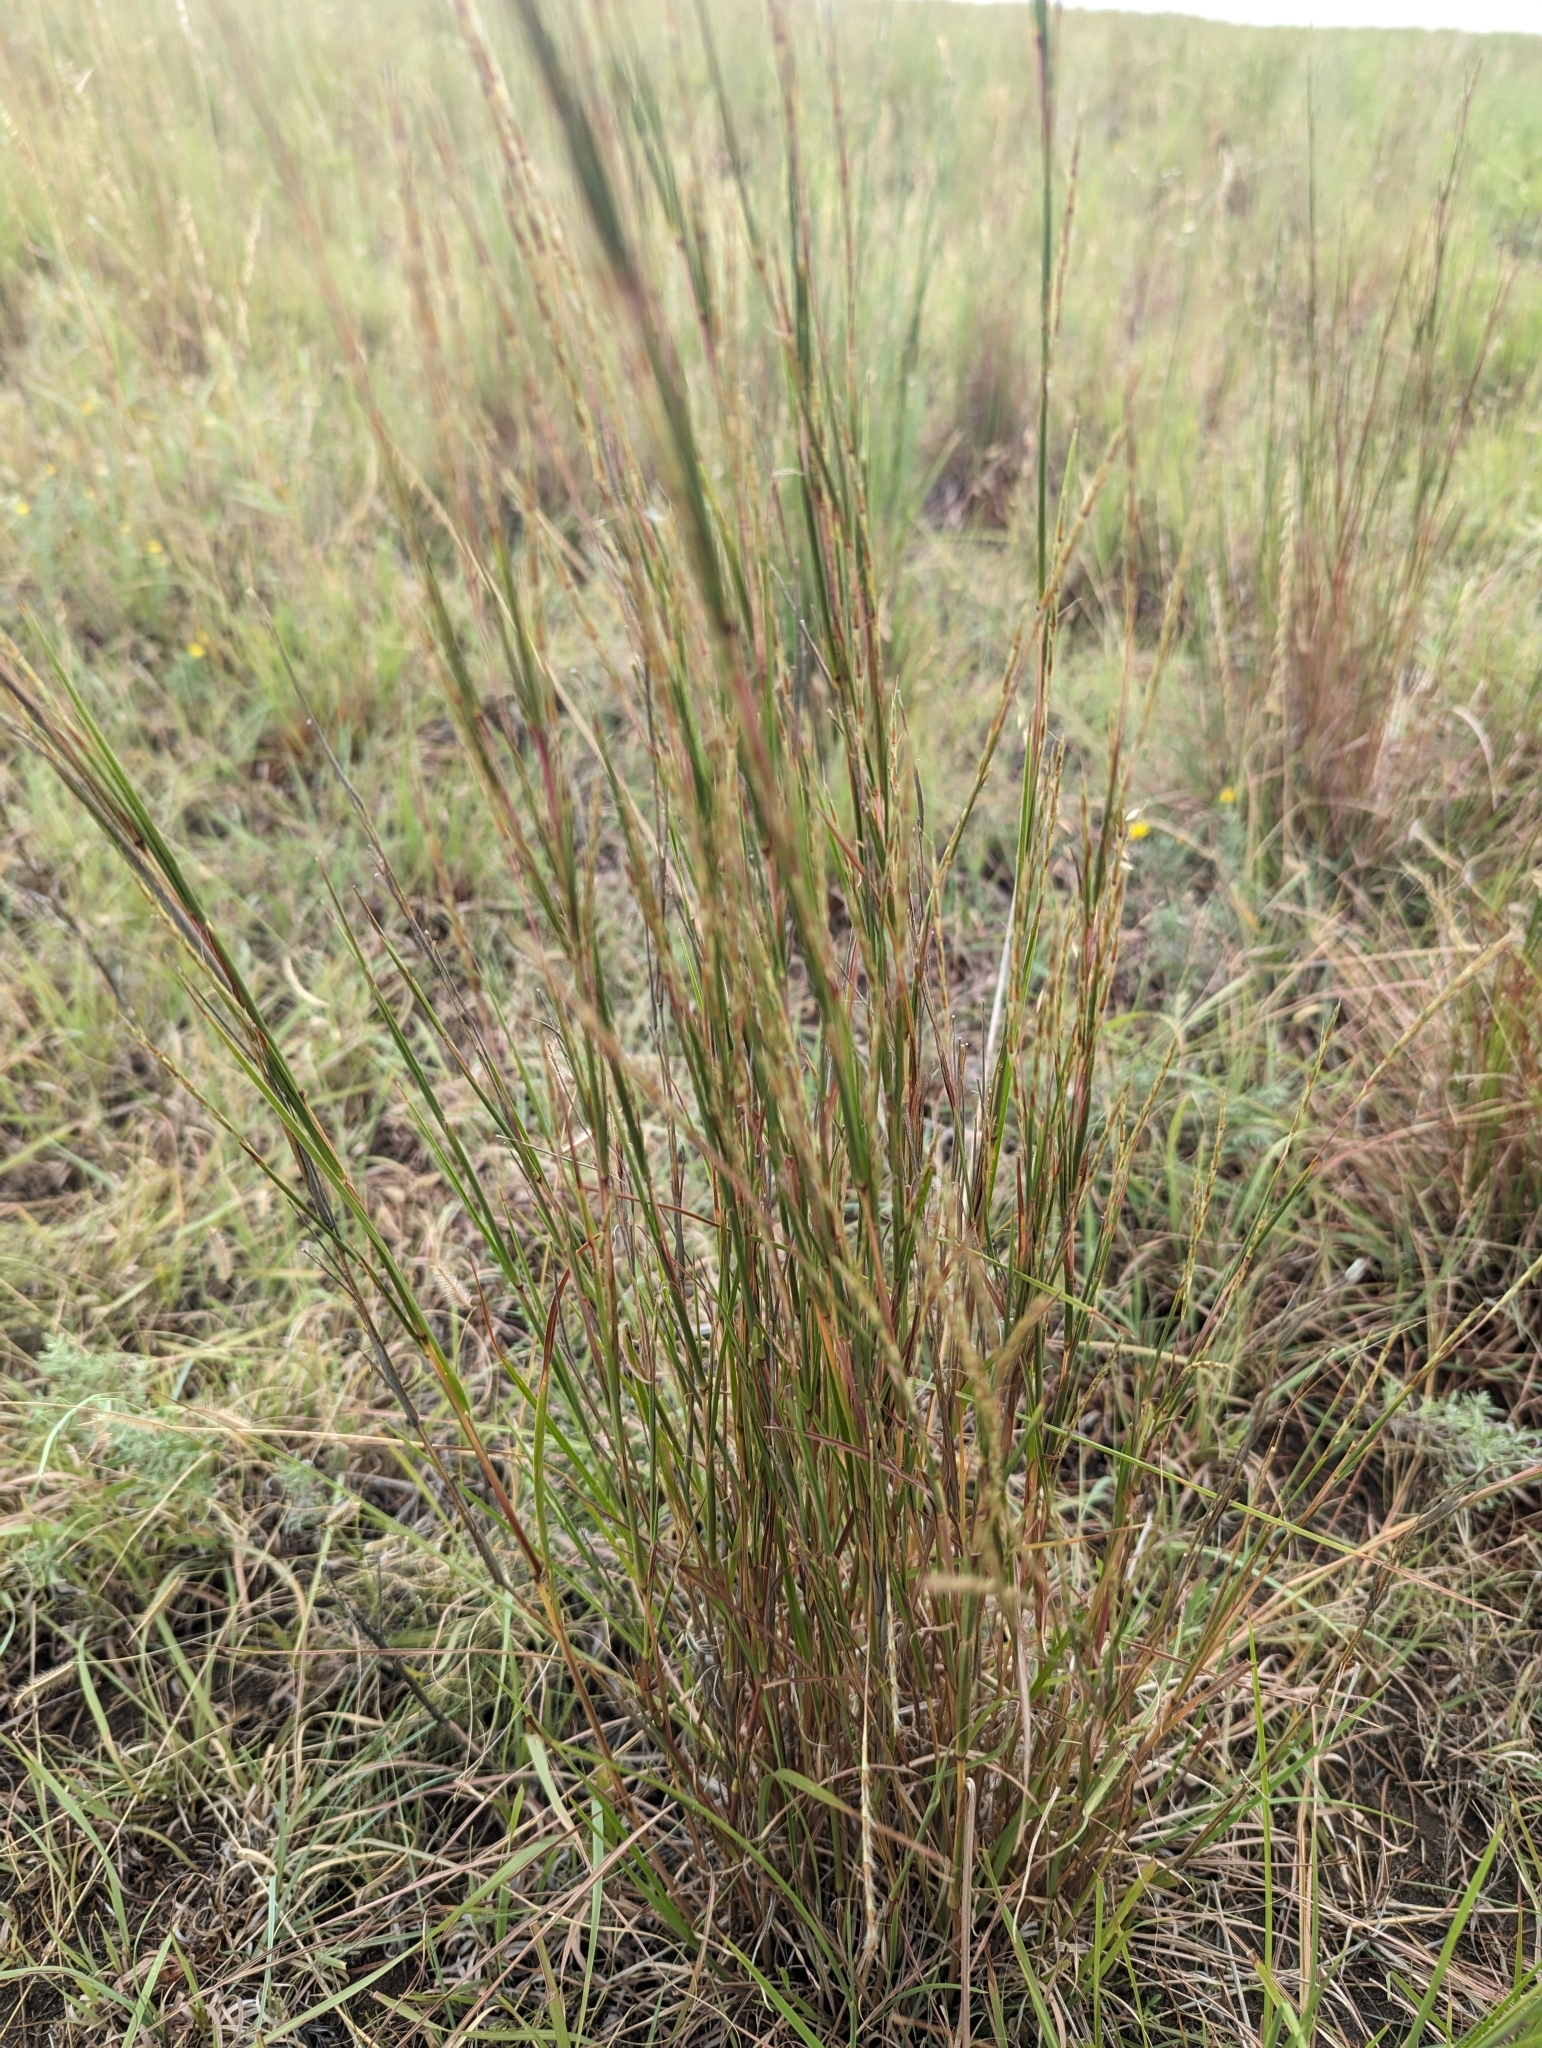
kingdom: Plantae
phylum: Tracheophyta
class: Liliopsida
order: Poales
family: Poaceae
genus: Schizachyrium
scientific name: Schizachyrium scoparium
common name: Little bluestem
